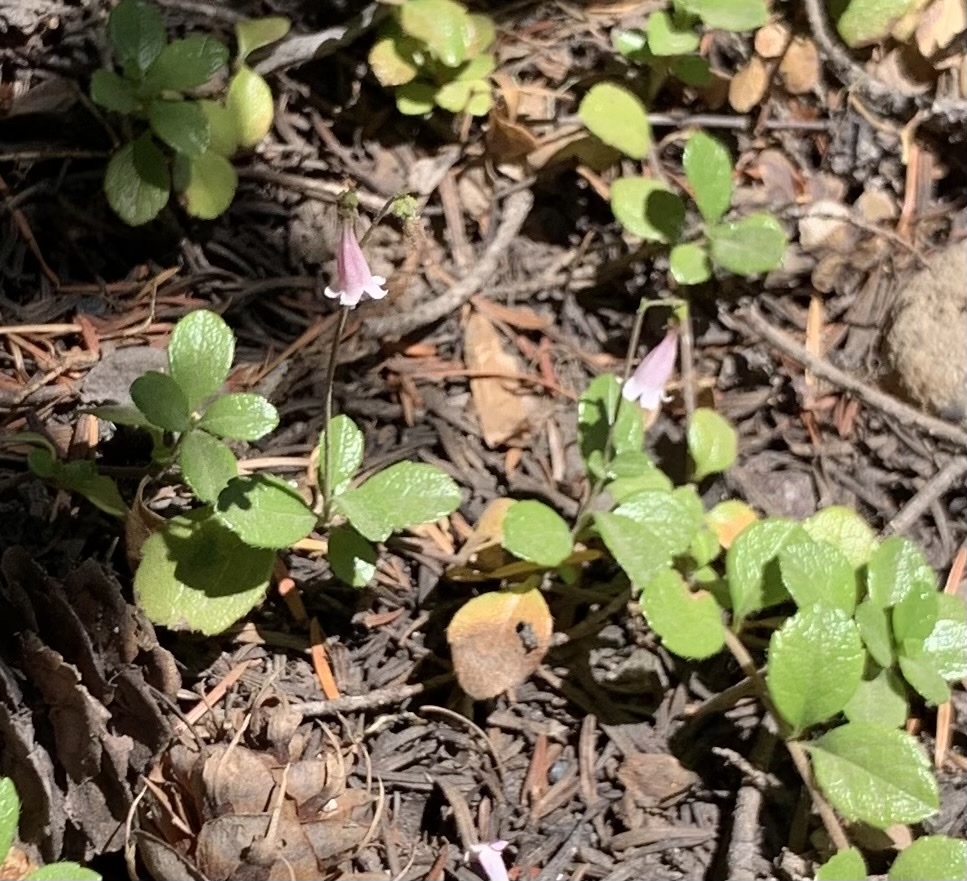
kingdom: Plantae
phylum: Tracheophyta
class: Magnoliopsida
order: Dipsacales
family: Caprifoliaceae
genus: Linnaea
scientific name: Linnaea borealis
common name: Twinflower
